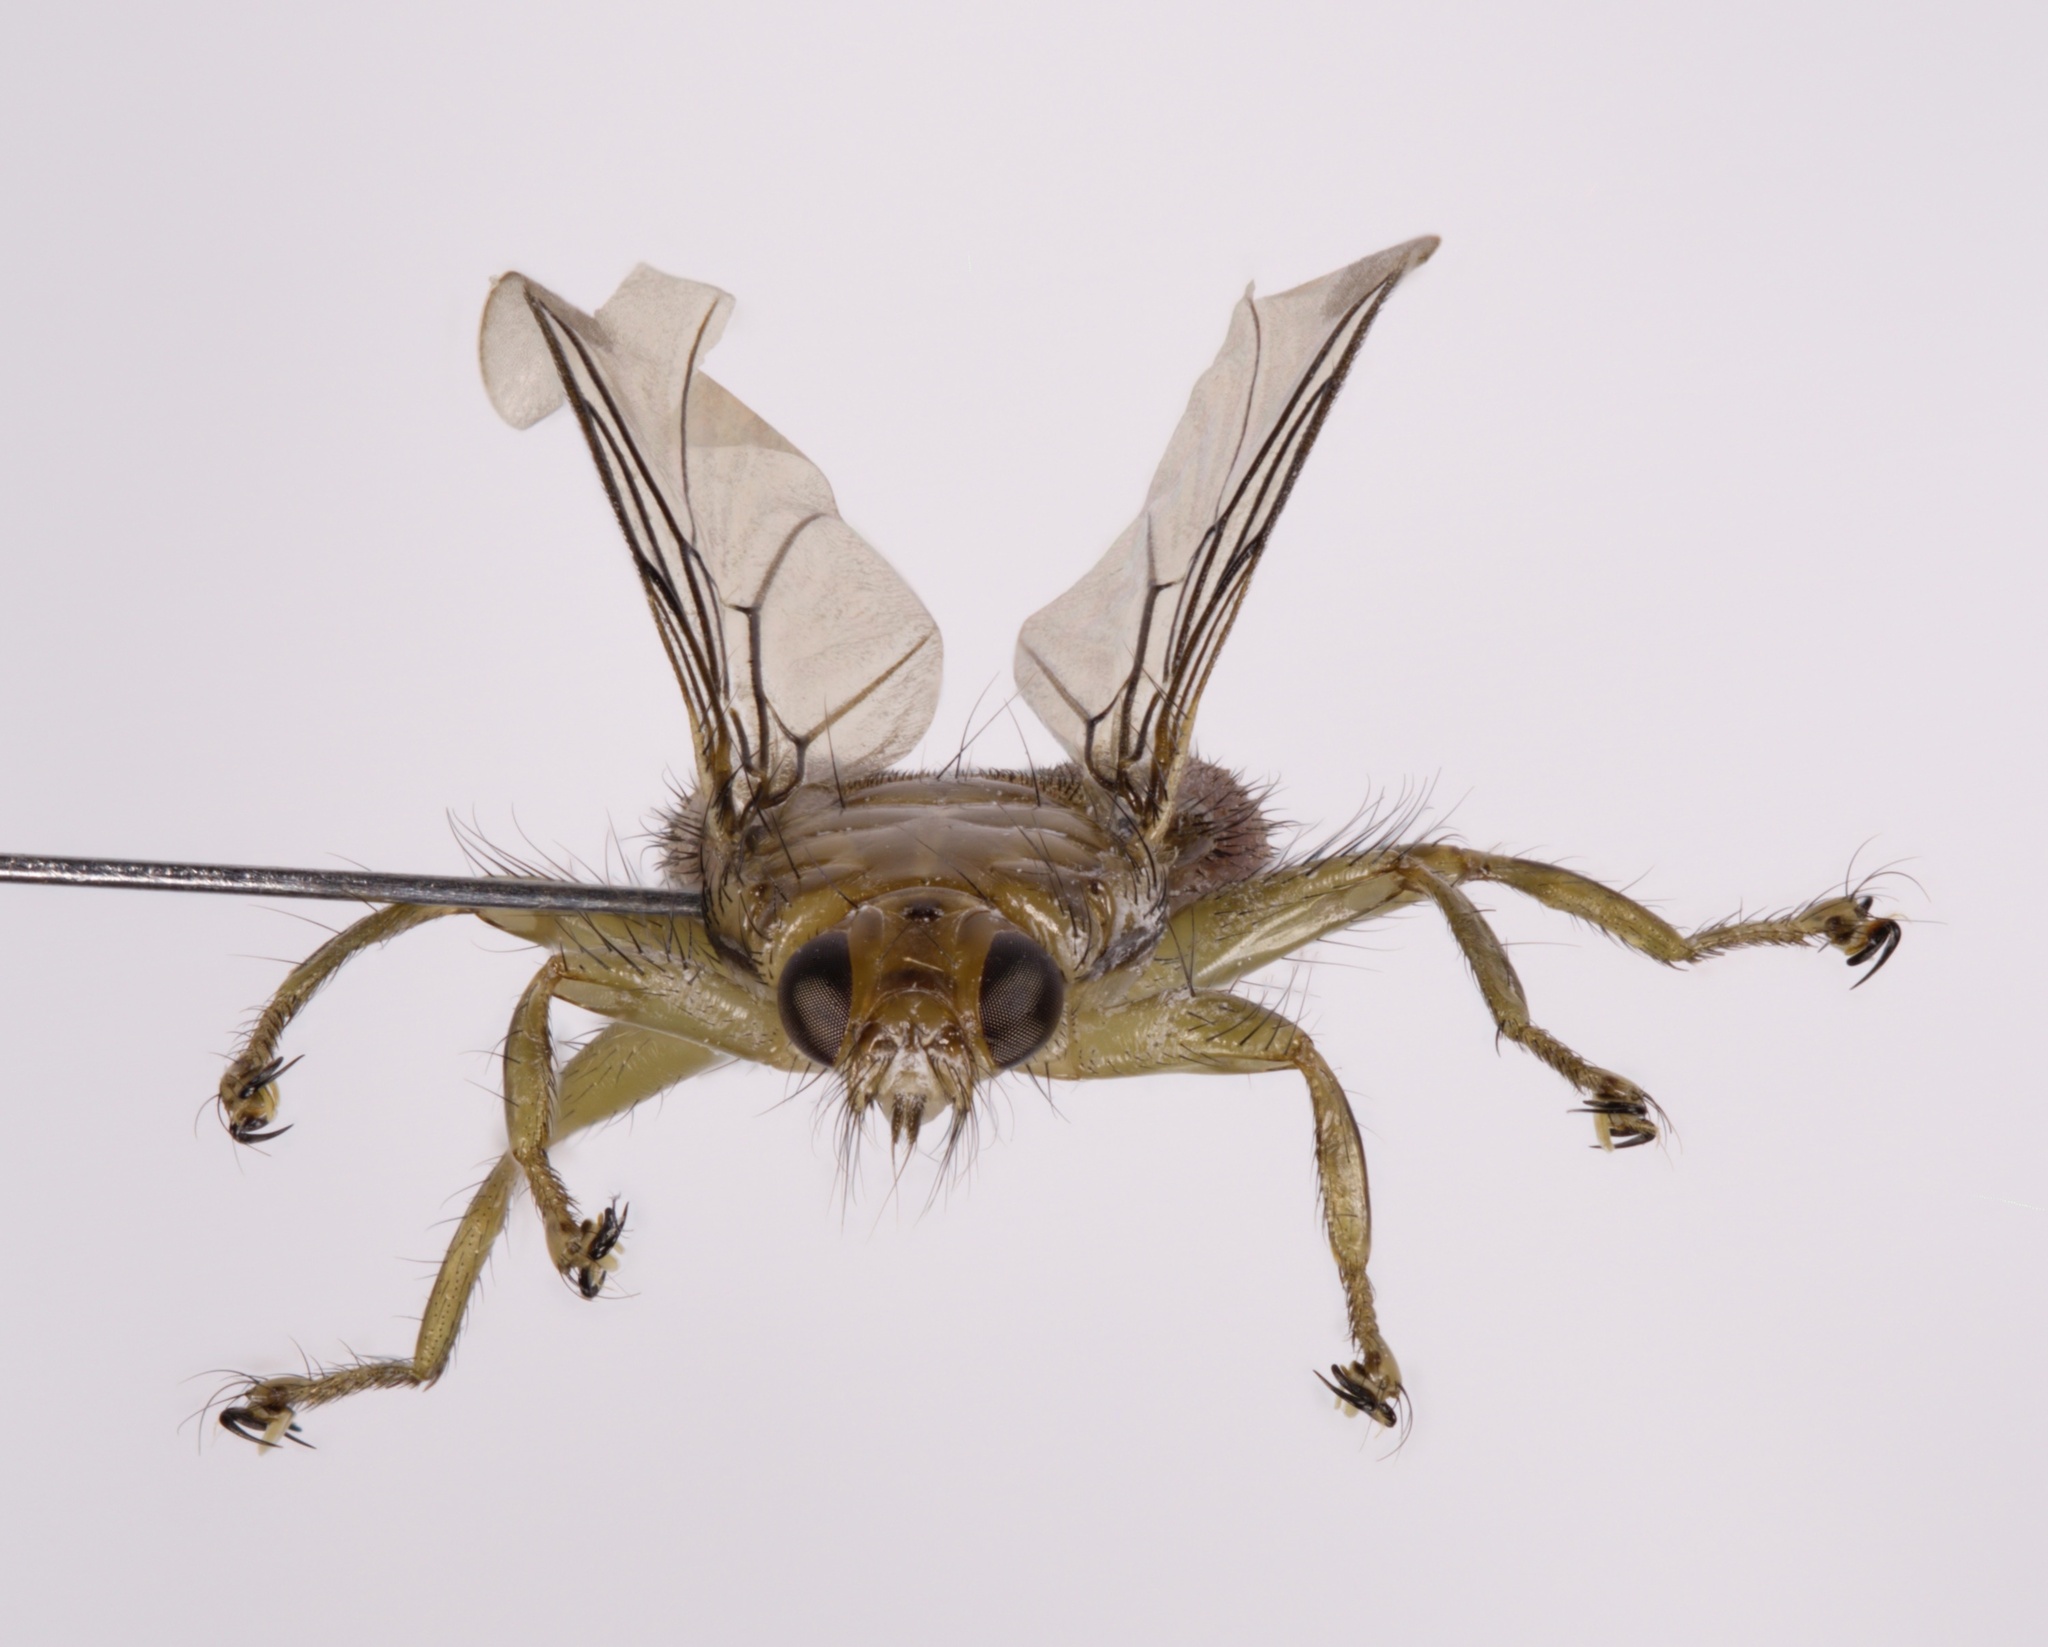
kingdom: Animalia
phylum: Arthropoda
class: Insecta
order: Diptera
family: Hippoboscidae
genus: Ornithomya
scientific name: Ornithomya fringillina
